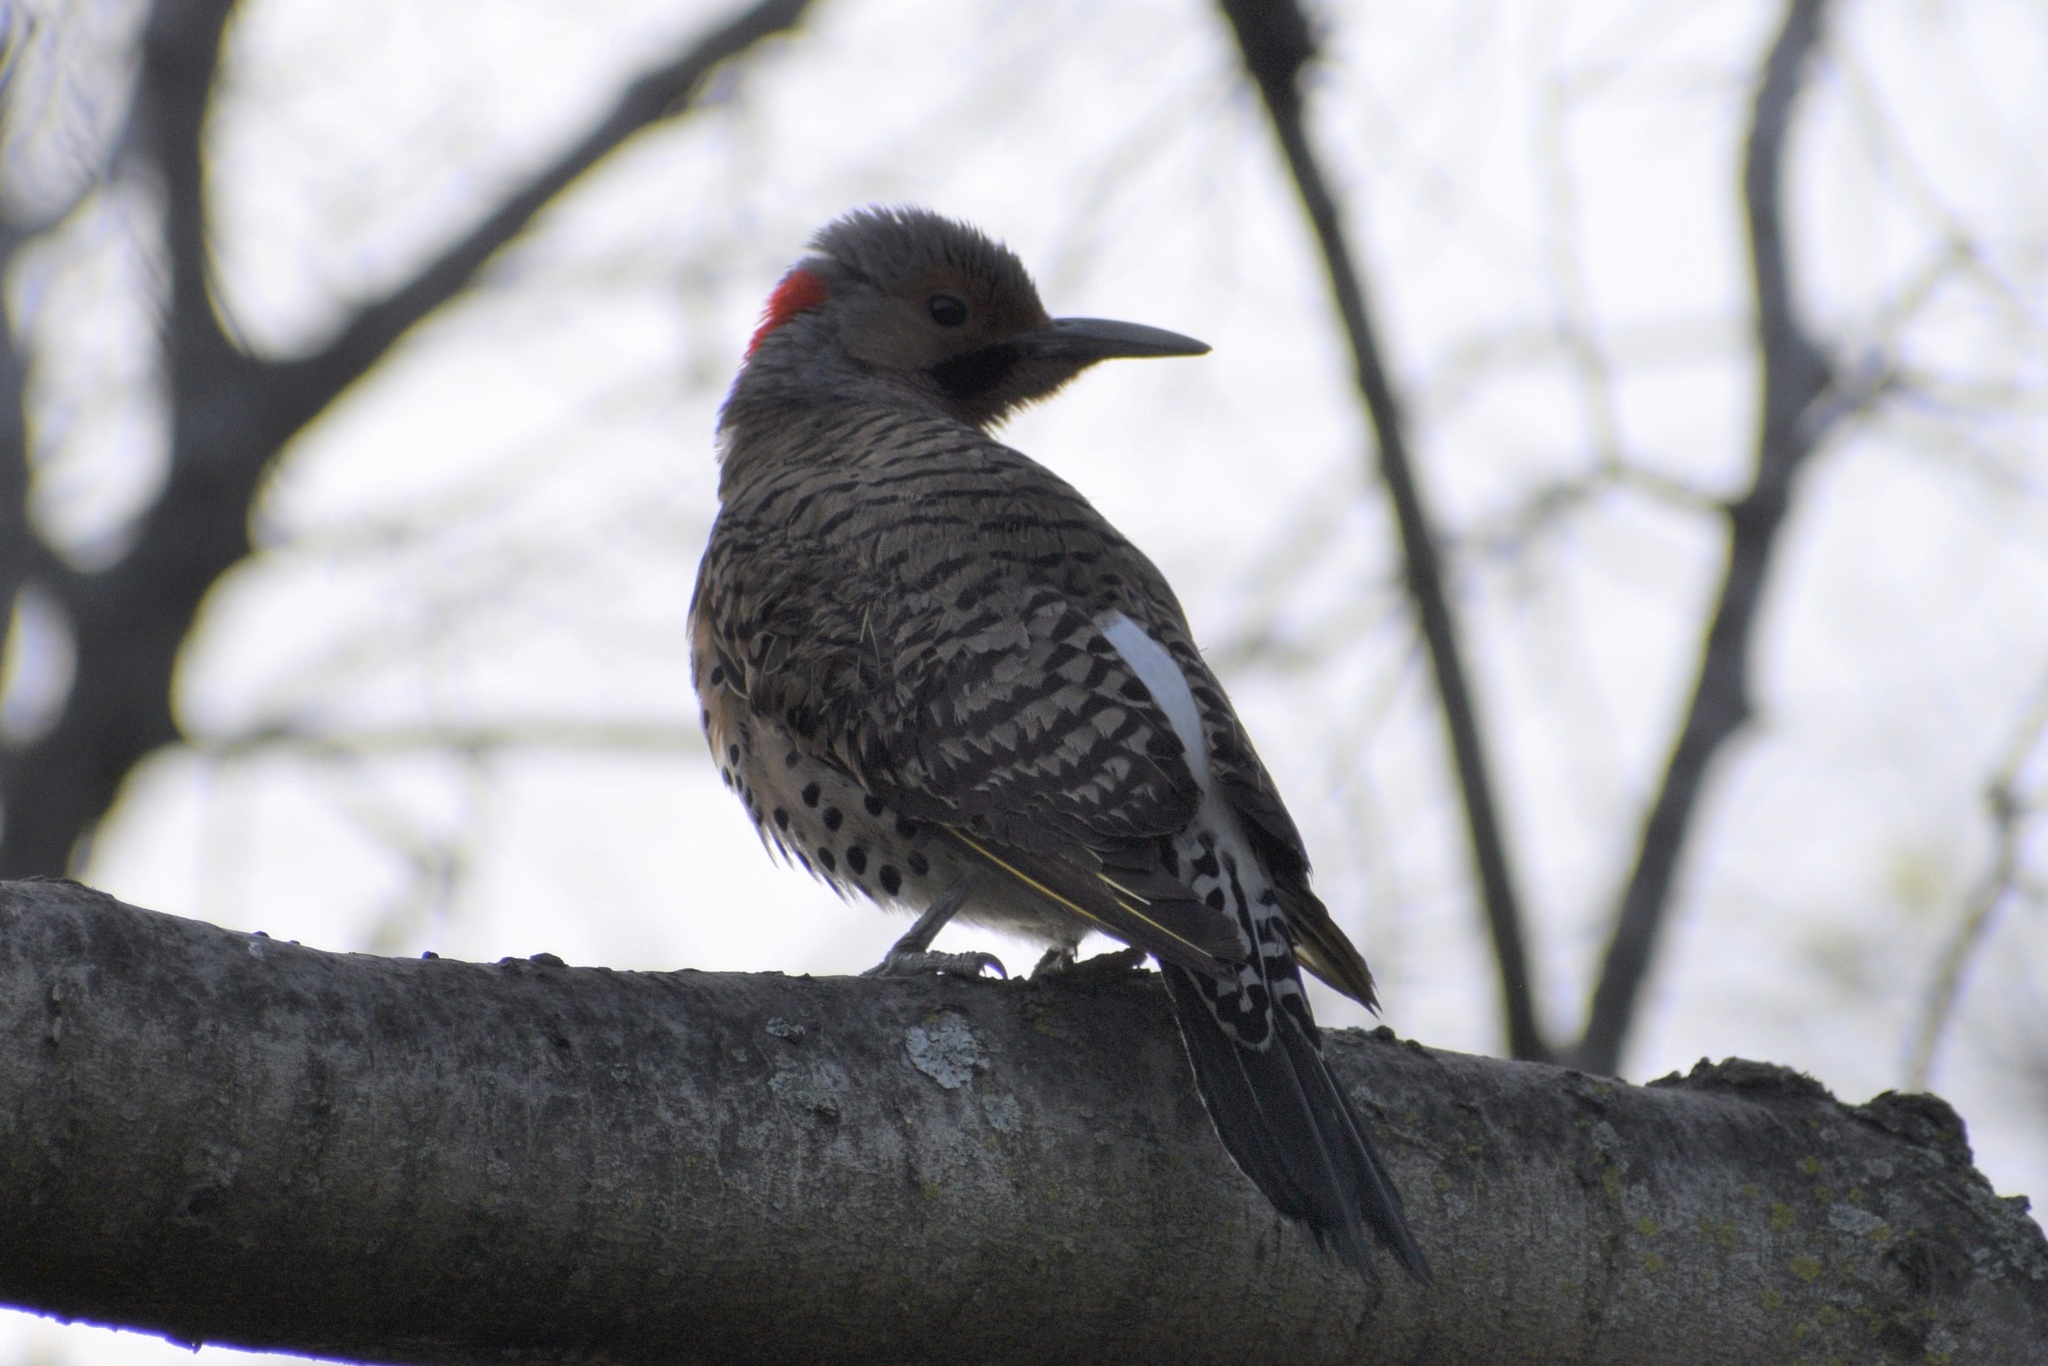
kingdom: Animalia
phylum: Chordata
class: Aves
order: Piciformes
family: Picidae
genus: Colaptes
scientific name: Colaptes auratus
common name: Northern flicker
